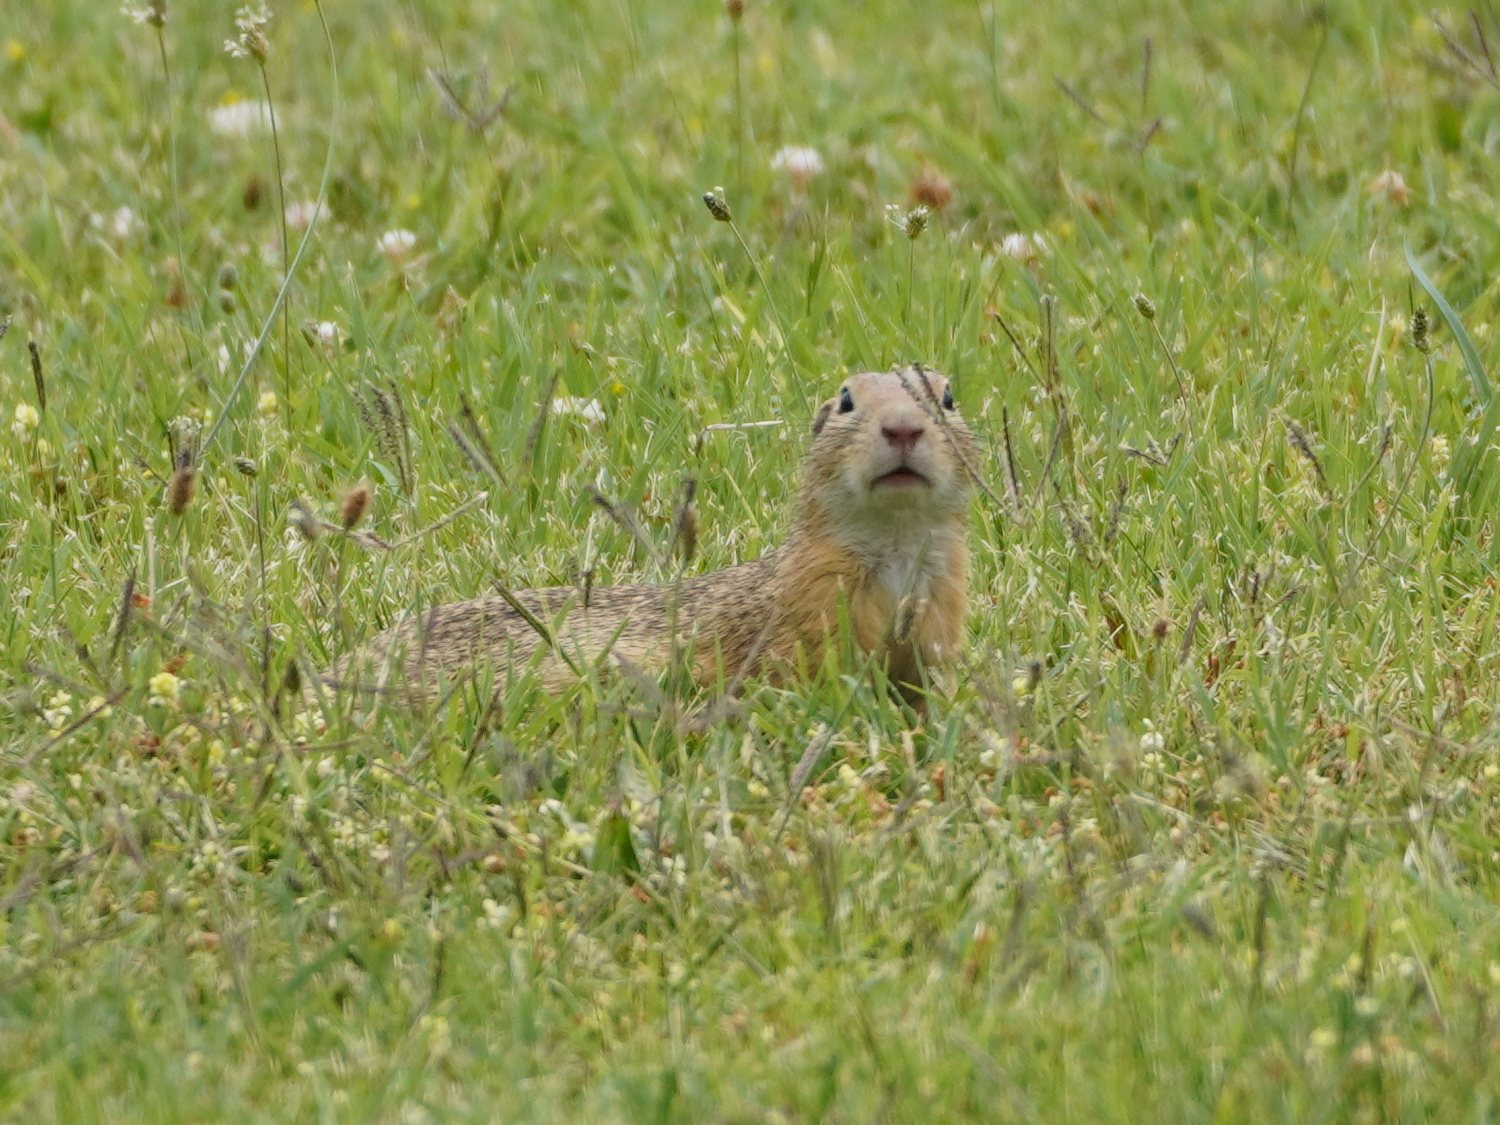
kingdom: Animalia
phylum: Chordata
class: Mammalia
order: Rodentia
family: Sciuridae
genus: Spermophilus
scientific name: Spermophilus citellus
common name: European ground squirrel
